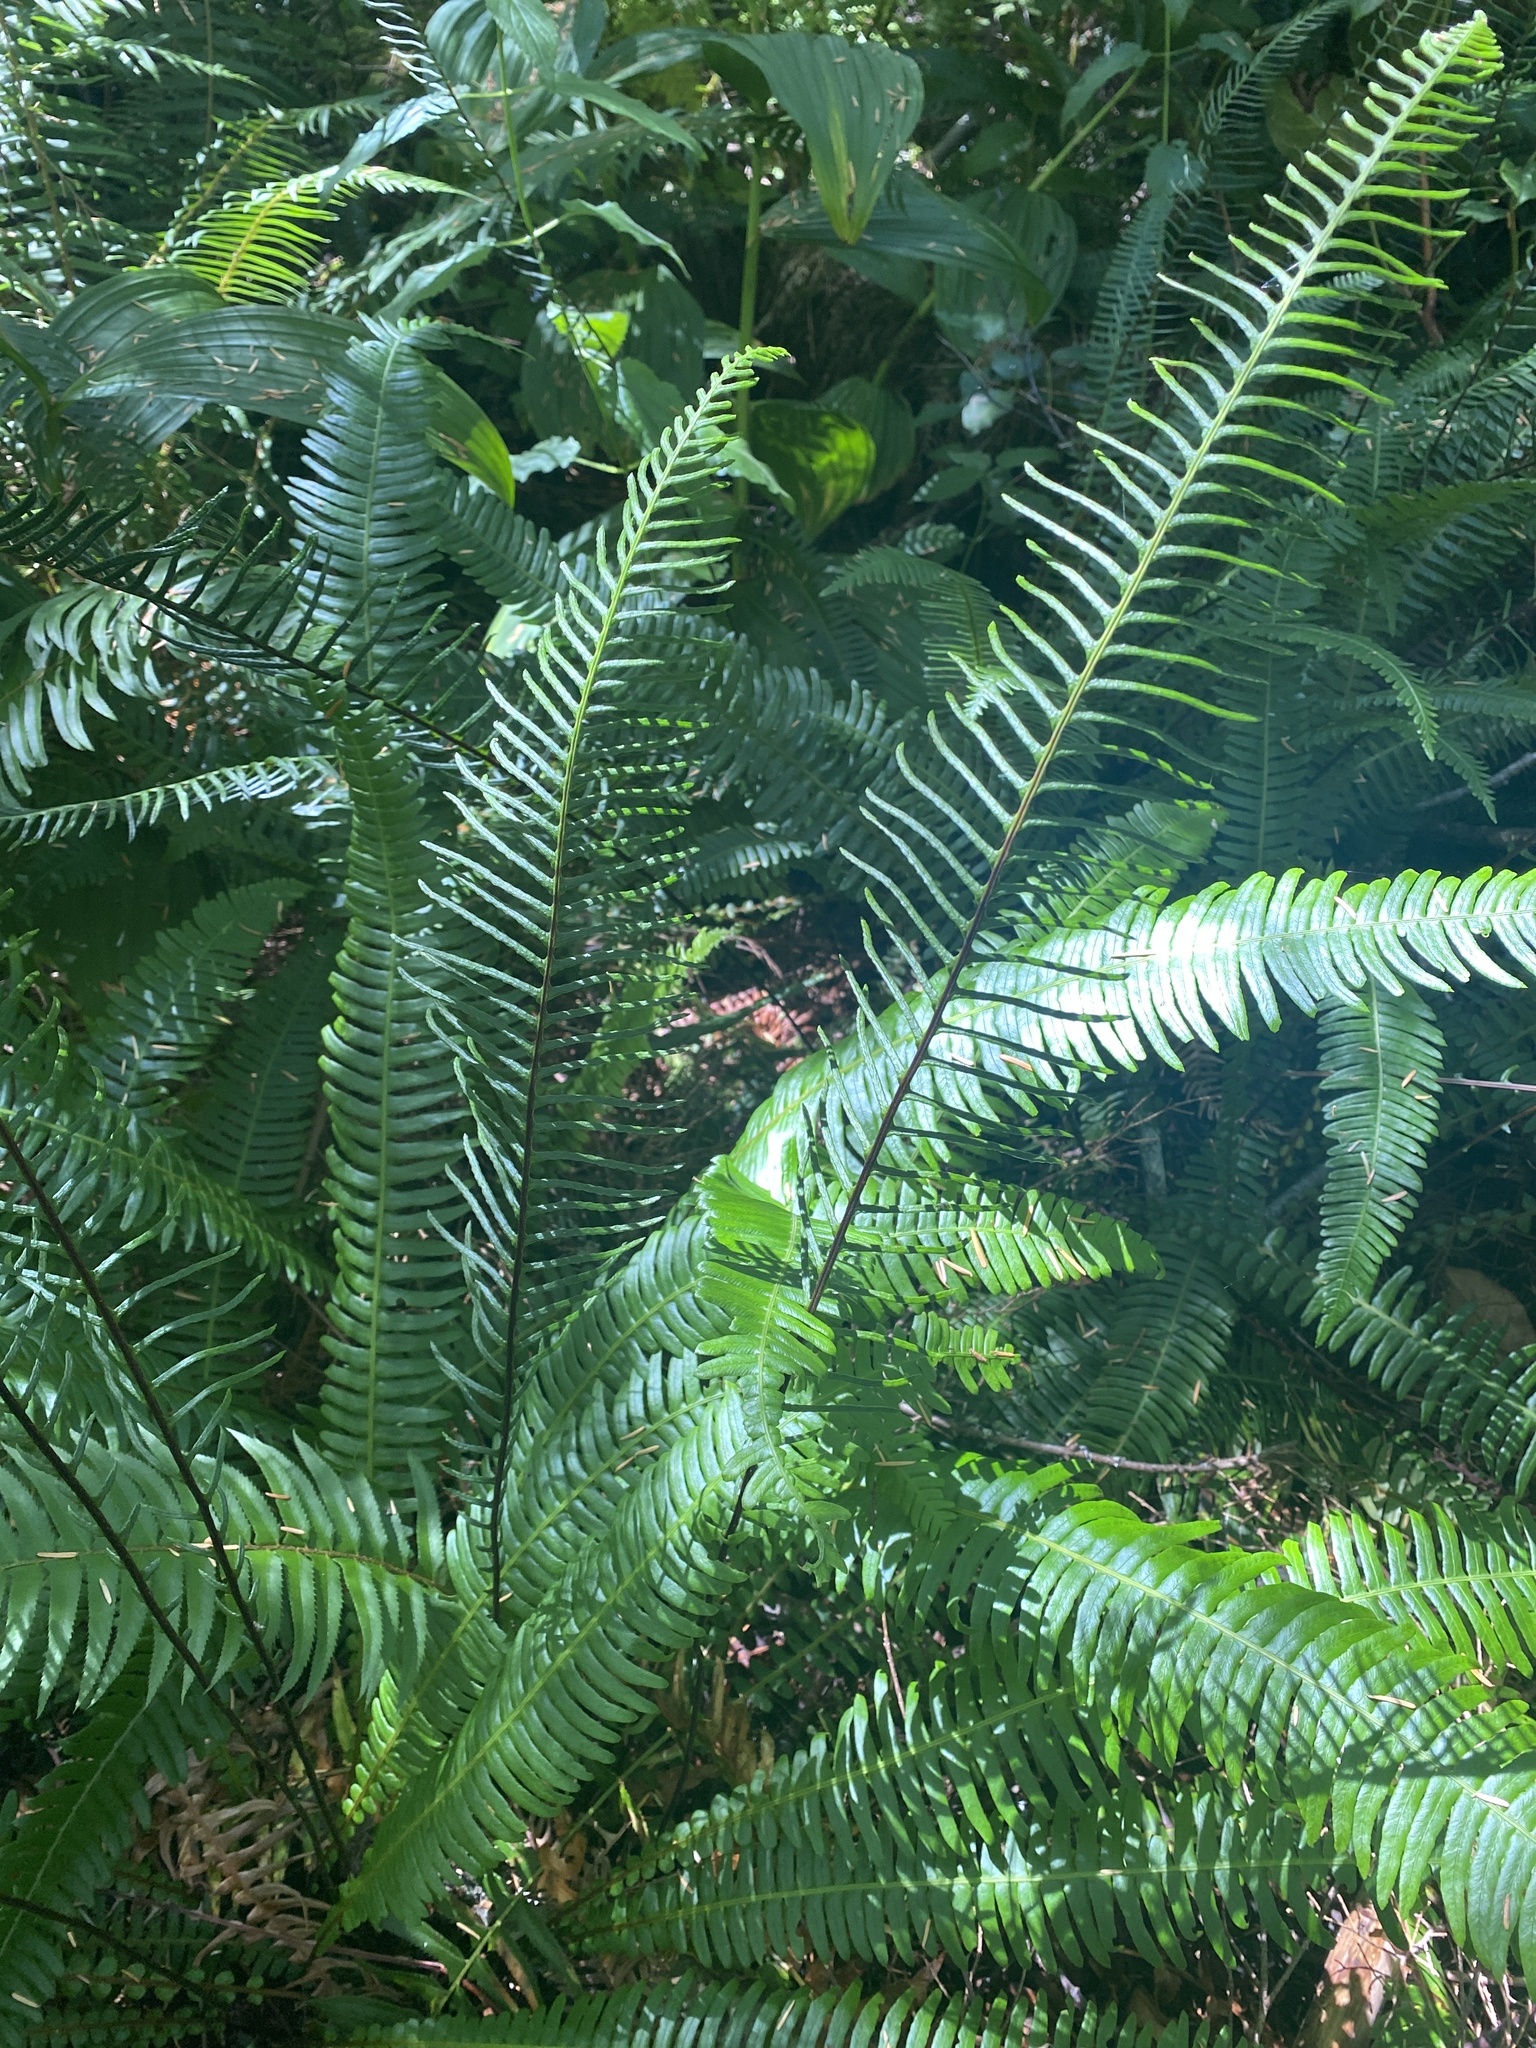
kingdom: Plantae
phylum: Tracheophyta
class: Polypodiopsida
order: Polypodiales
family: Blechnaceae
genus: Struthiopteris
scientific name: Struthiopteris spicant
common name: Deer fern
